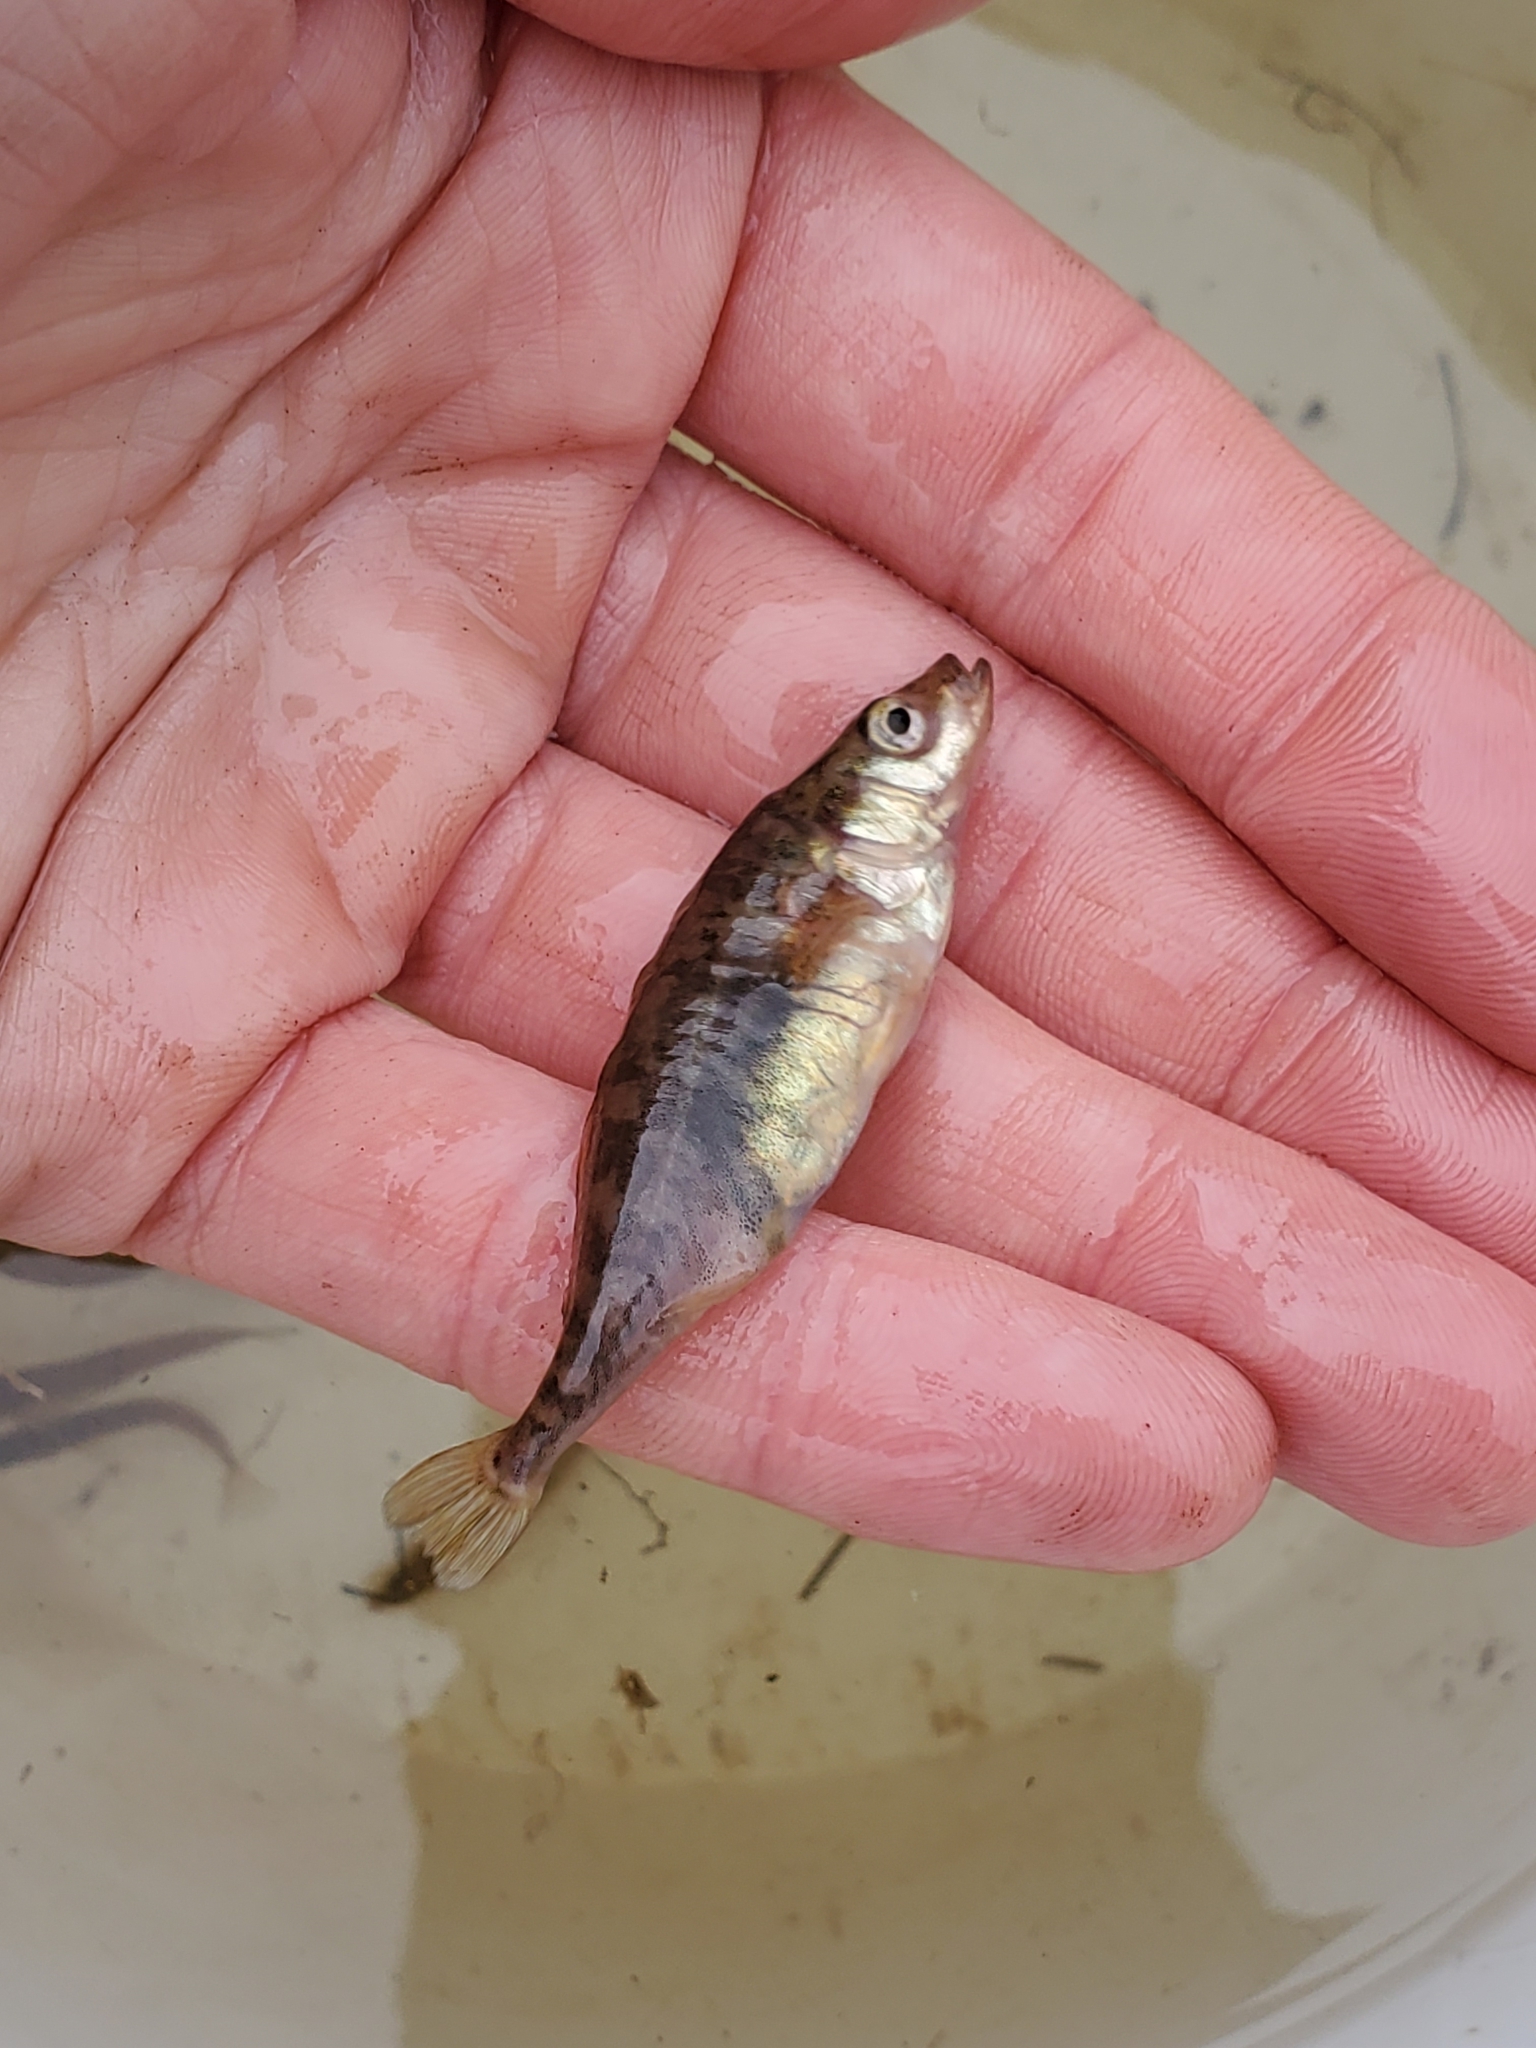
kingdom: Animalia
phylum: Chordata
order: Gasterosteiformes
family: Gasterosteidae
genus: Gasterosteus
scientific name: Gasterosteus aculeatus
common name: Three-spined stickleback
